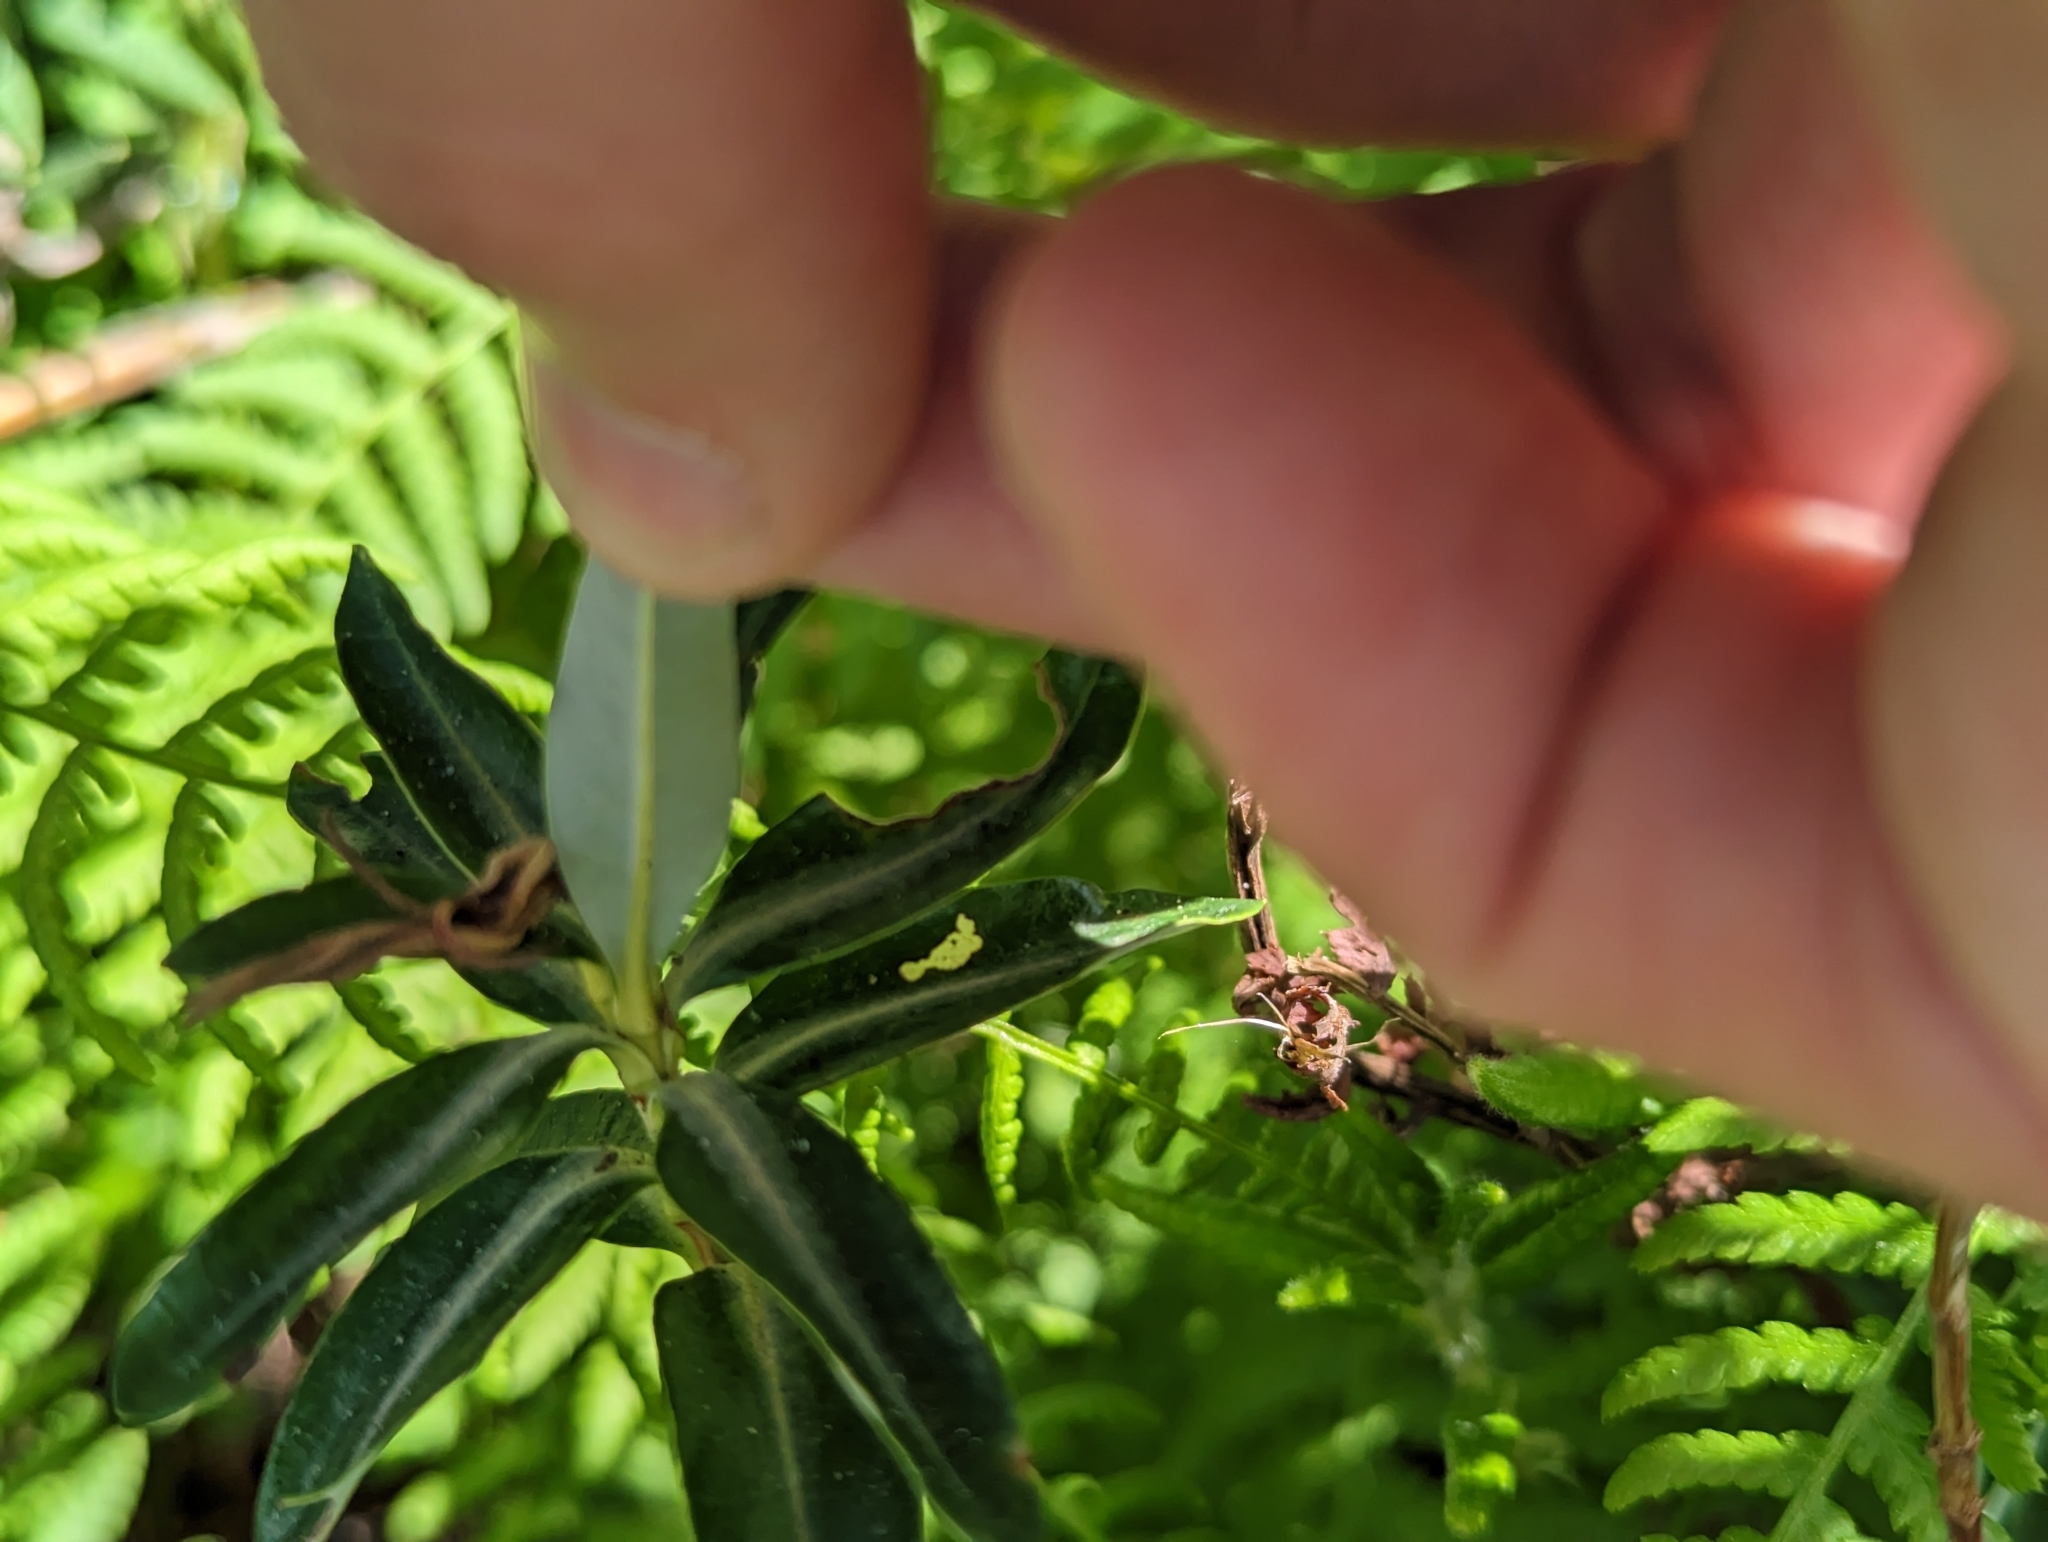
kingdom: Plantae
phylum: Tracheophyta
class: Magnoliopsida
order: Ericales
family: Ericaceae
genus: Kalmia
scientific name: Kalmia microphylla
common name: Alpine bog laurel
